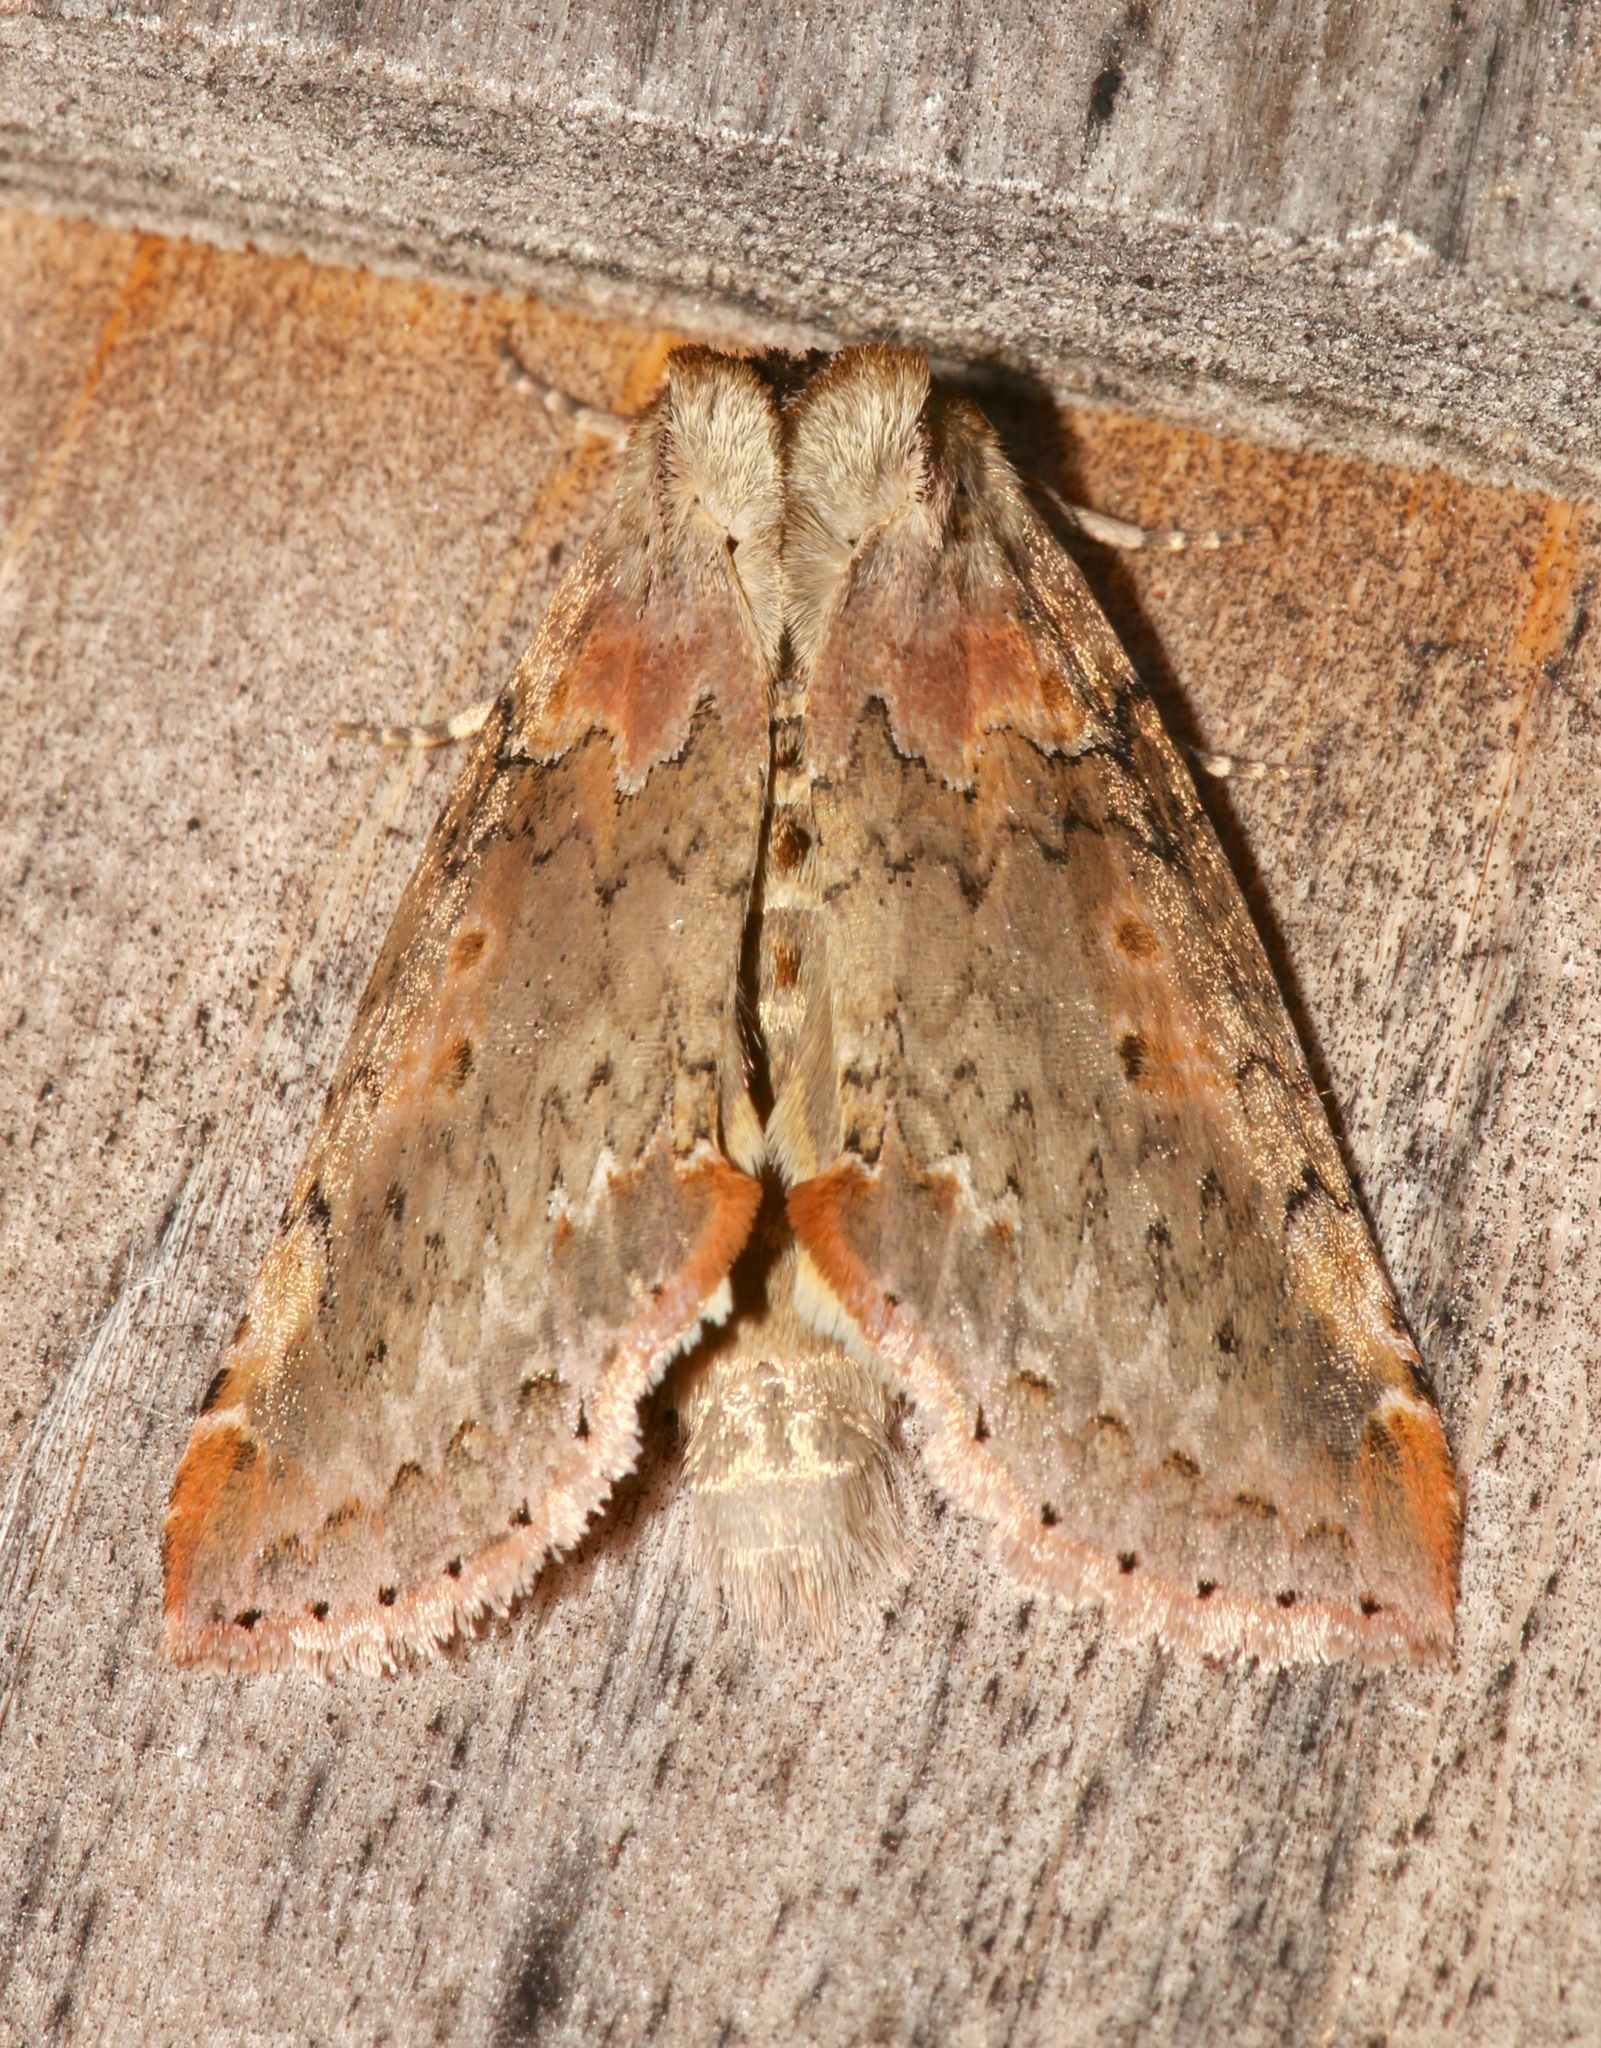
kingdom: Animalia
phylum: Arthropoda
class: Insecta
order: Lepidoptera
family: Drepanidae
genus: Pseudothyatira
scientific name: Pseudothyatira cymatophoroides
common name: Tufted thyatirid moth
